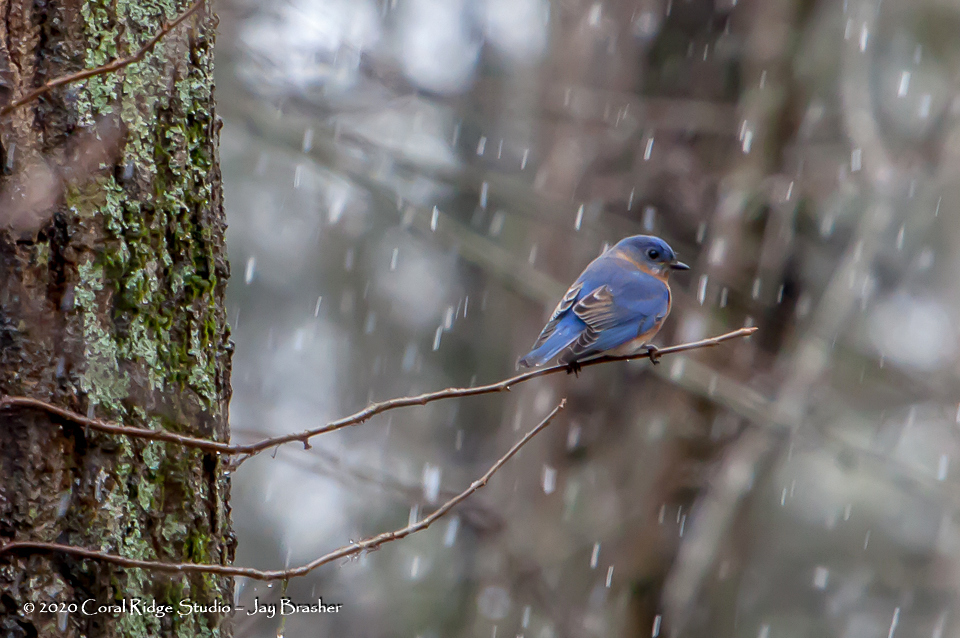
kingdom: Animalia
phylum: Chordata
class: Aves
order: Passeriformes
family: Turdidae
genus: Sialia
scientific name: Sialia sialis
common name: Eastern bluebird
